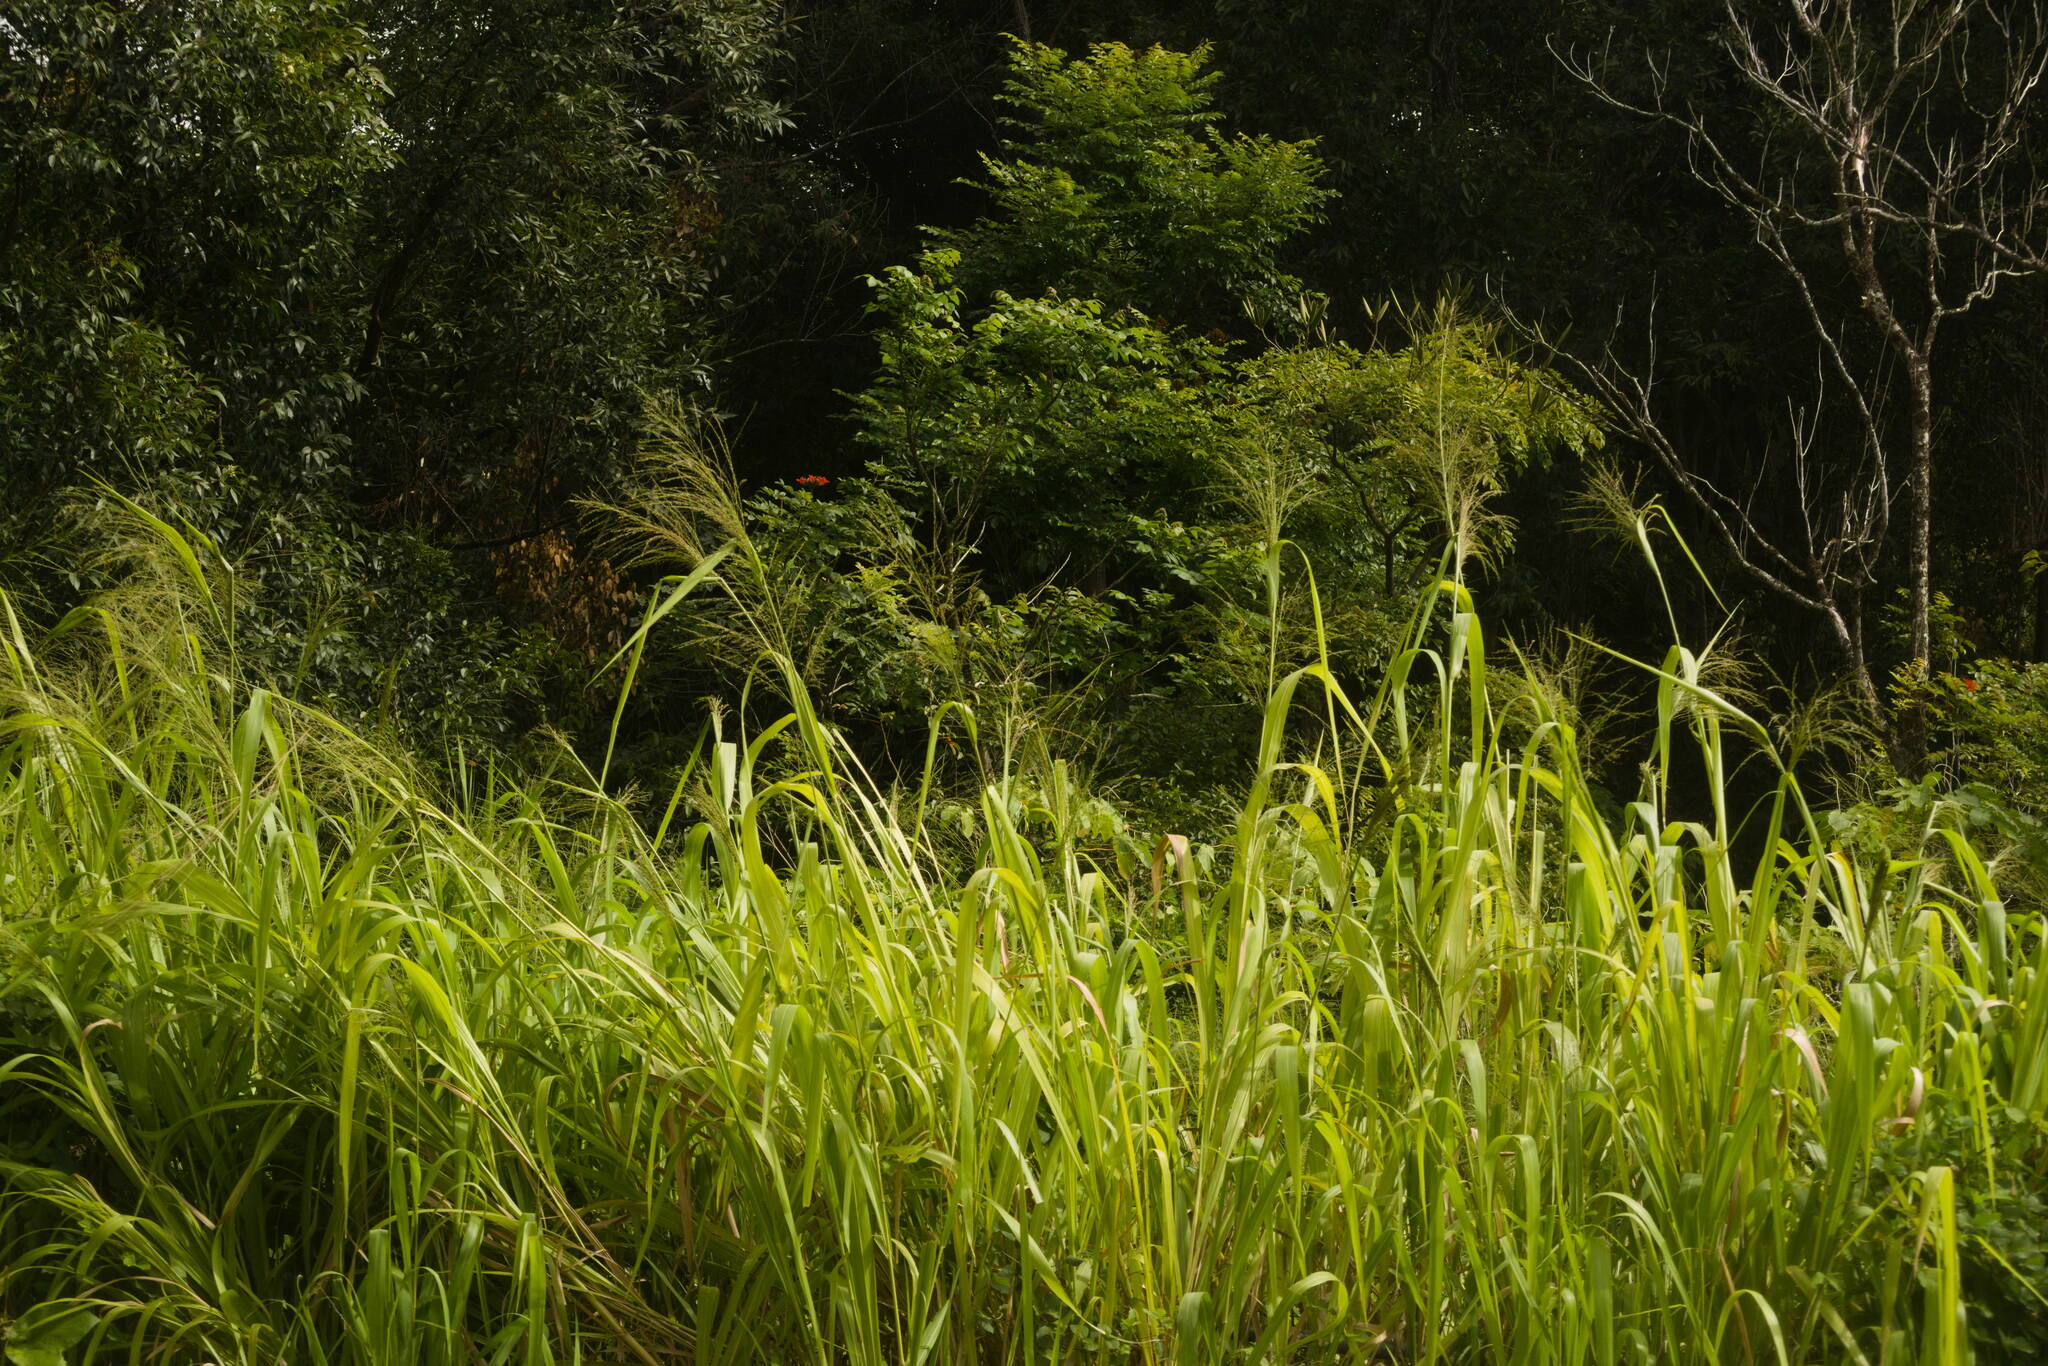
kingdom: Plantae
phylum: Tracheophyta
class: Liliopsida
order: Poales
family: Poaceae
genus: Megathyrsus
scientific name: Megathyrsus maximus
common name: Guineagrass
